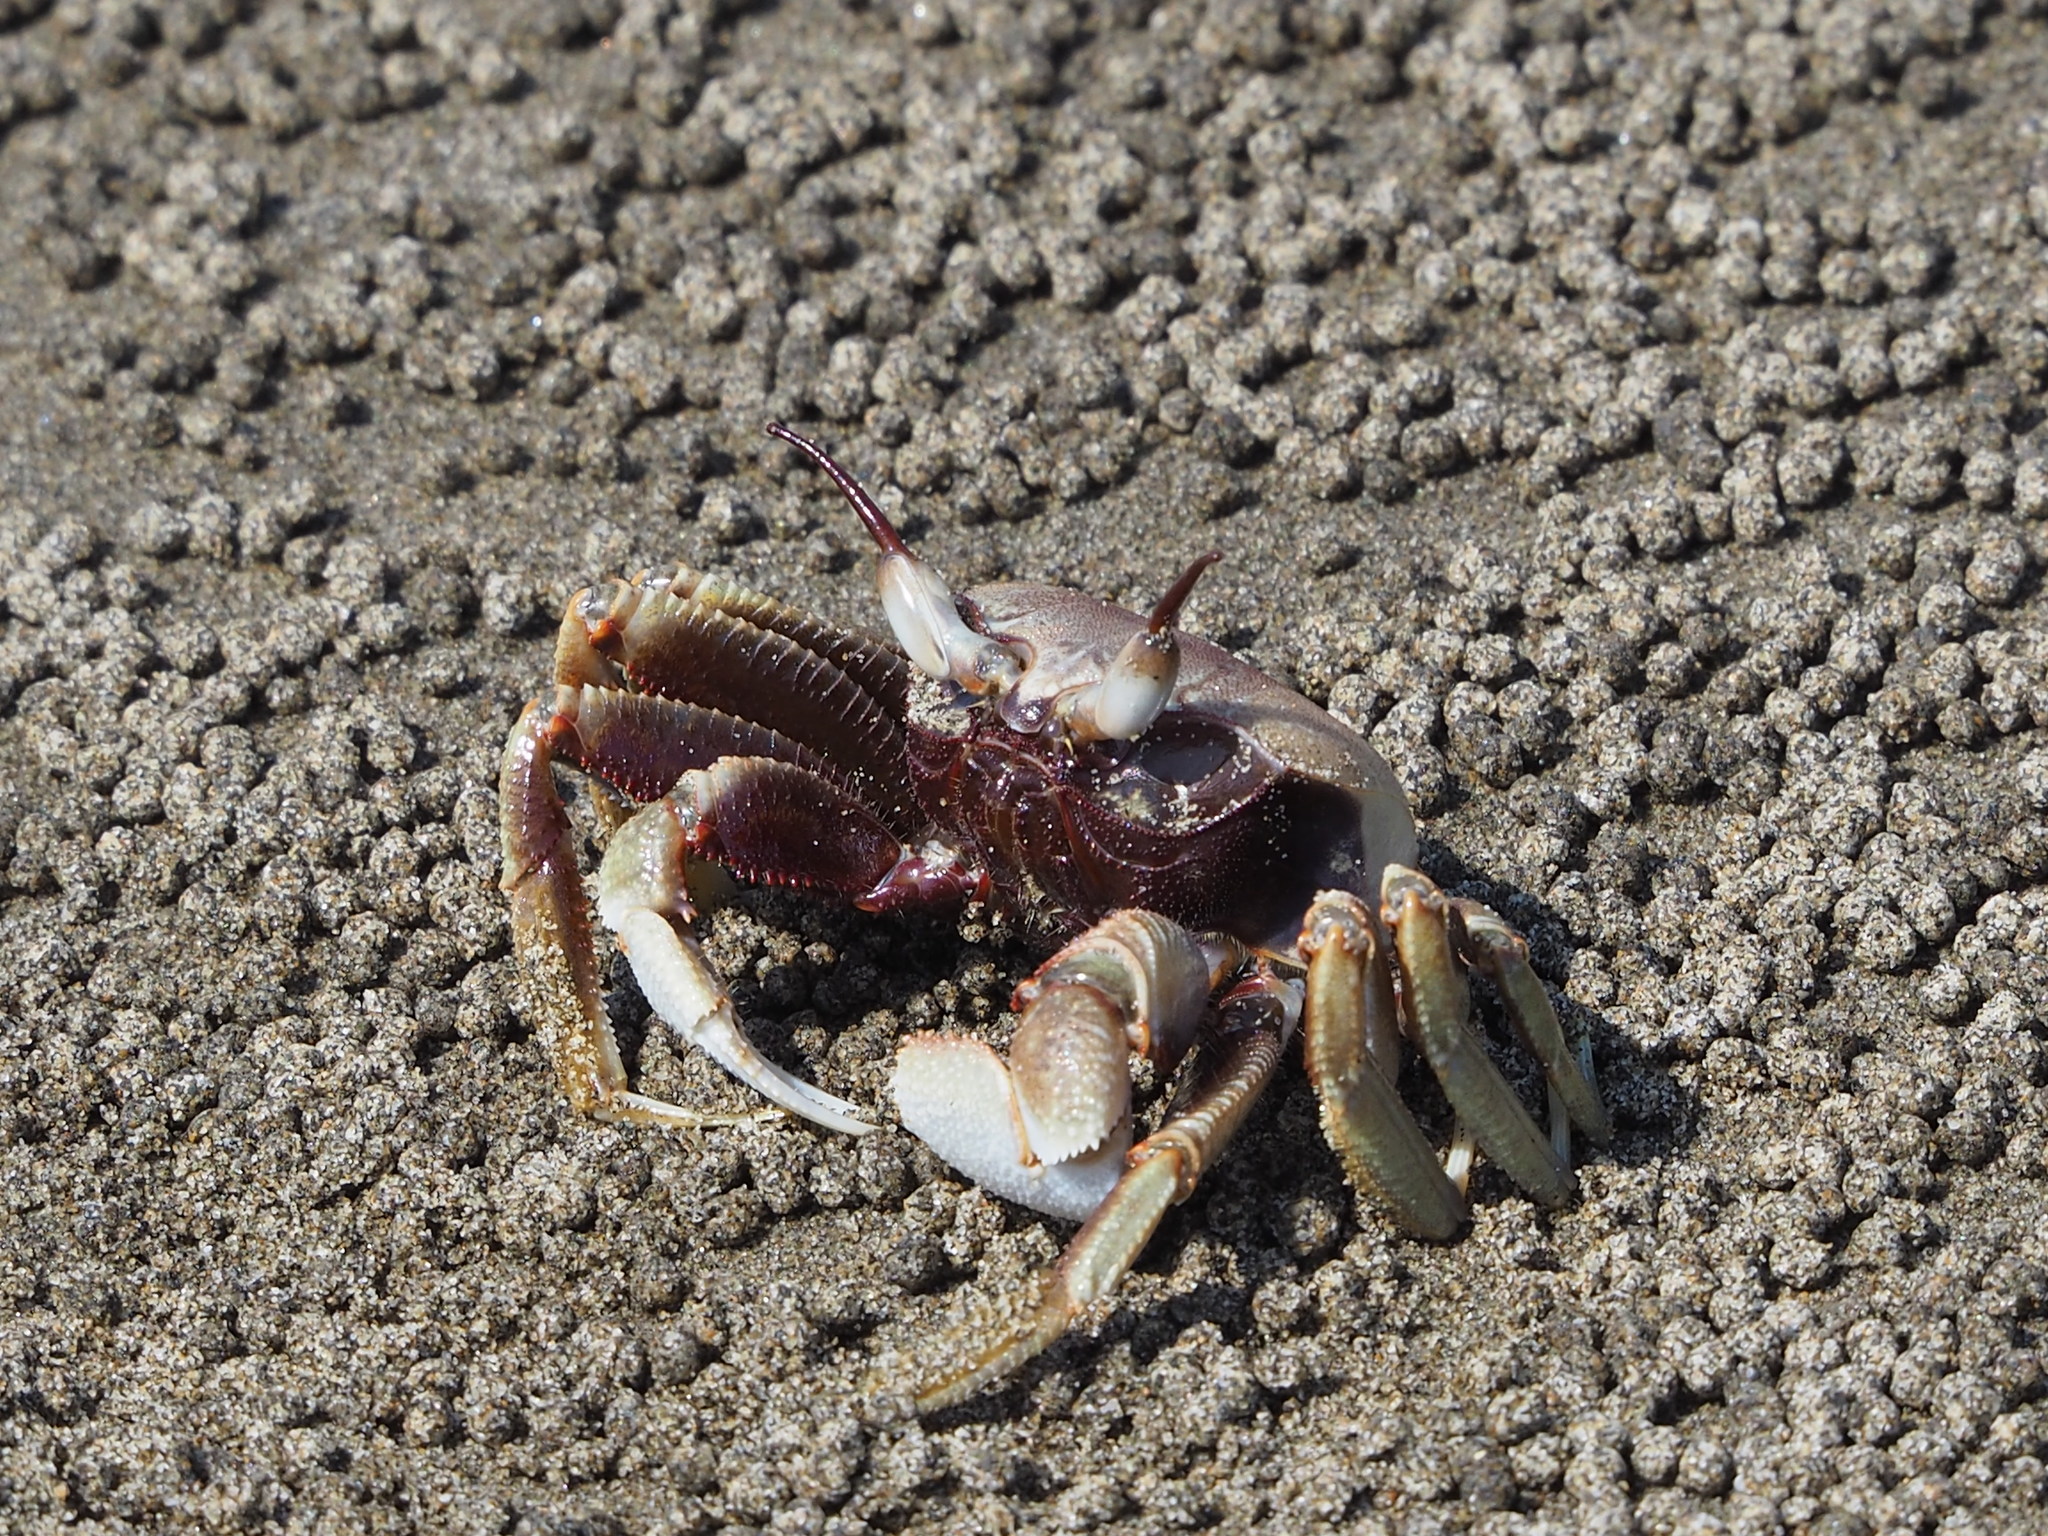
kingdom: Animalia
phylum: Arthropoda
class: Malacostraca
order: Decapoda
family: Ocypodidae
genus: Ocypode
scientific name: Ocypode ceratophthalmus
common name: Indo-pacific ghost crab
